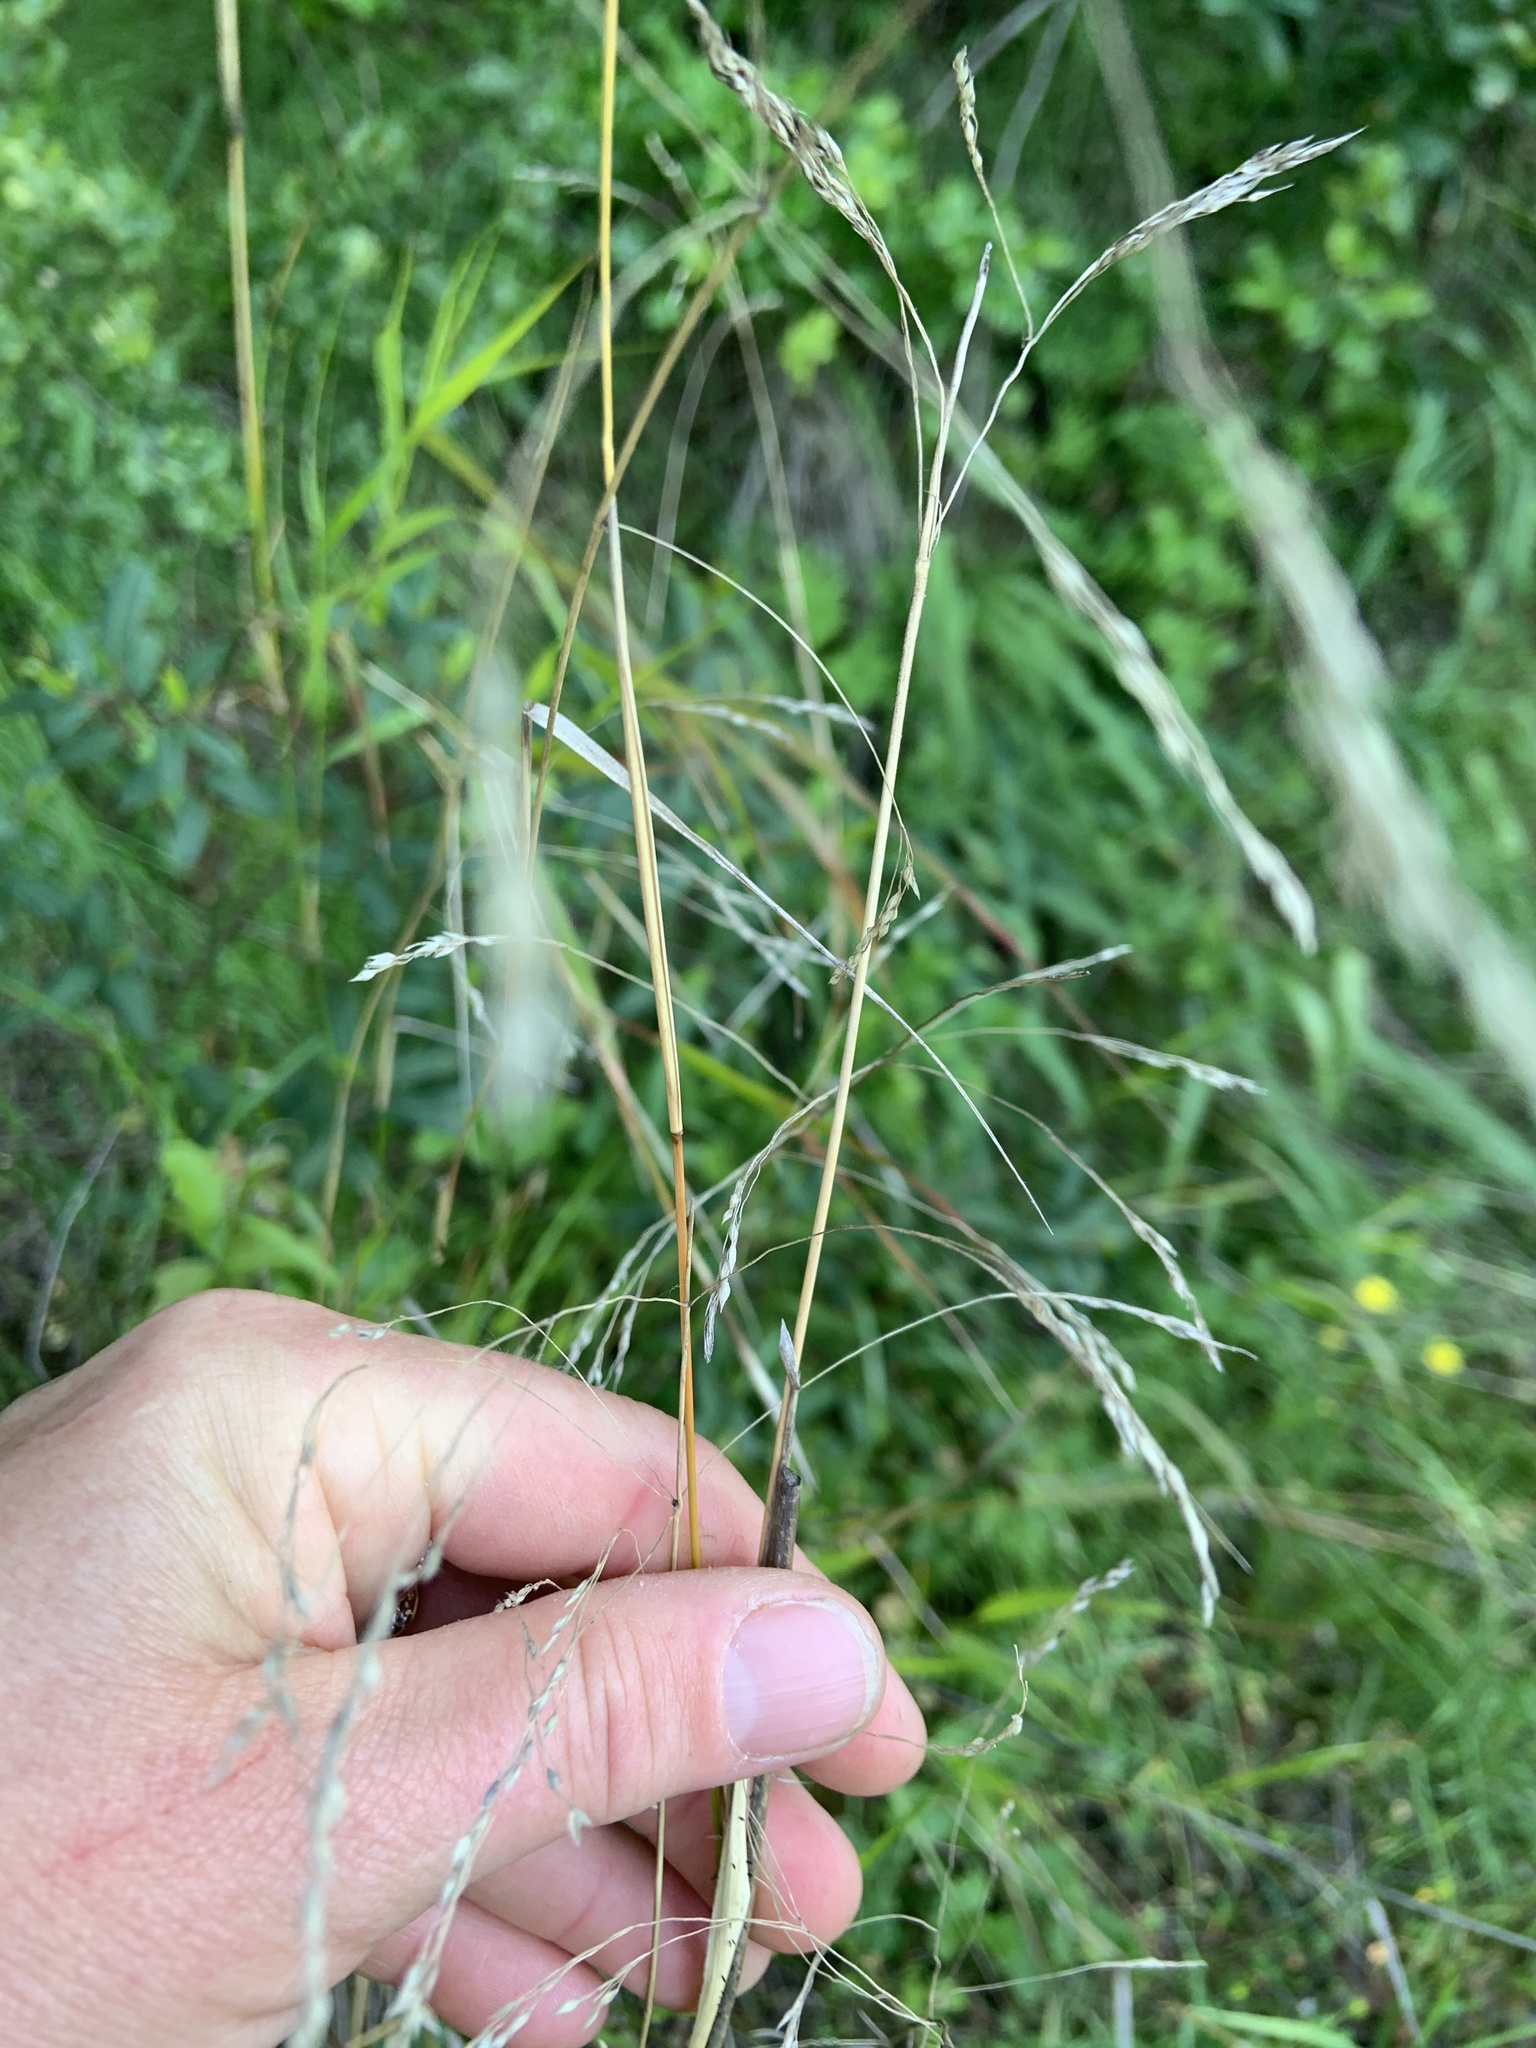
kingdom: Plantae
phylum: Tracheophyta
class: Liliopsida
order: Poales
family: Poaceae
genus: Oloptum
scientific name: Oloptum miliaceum
